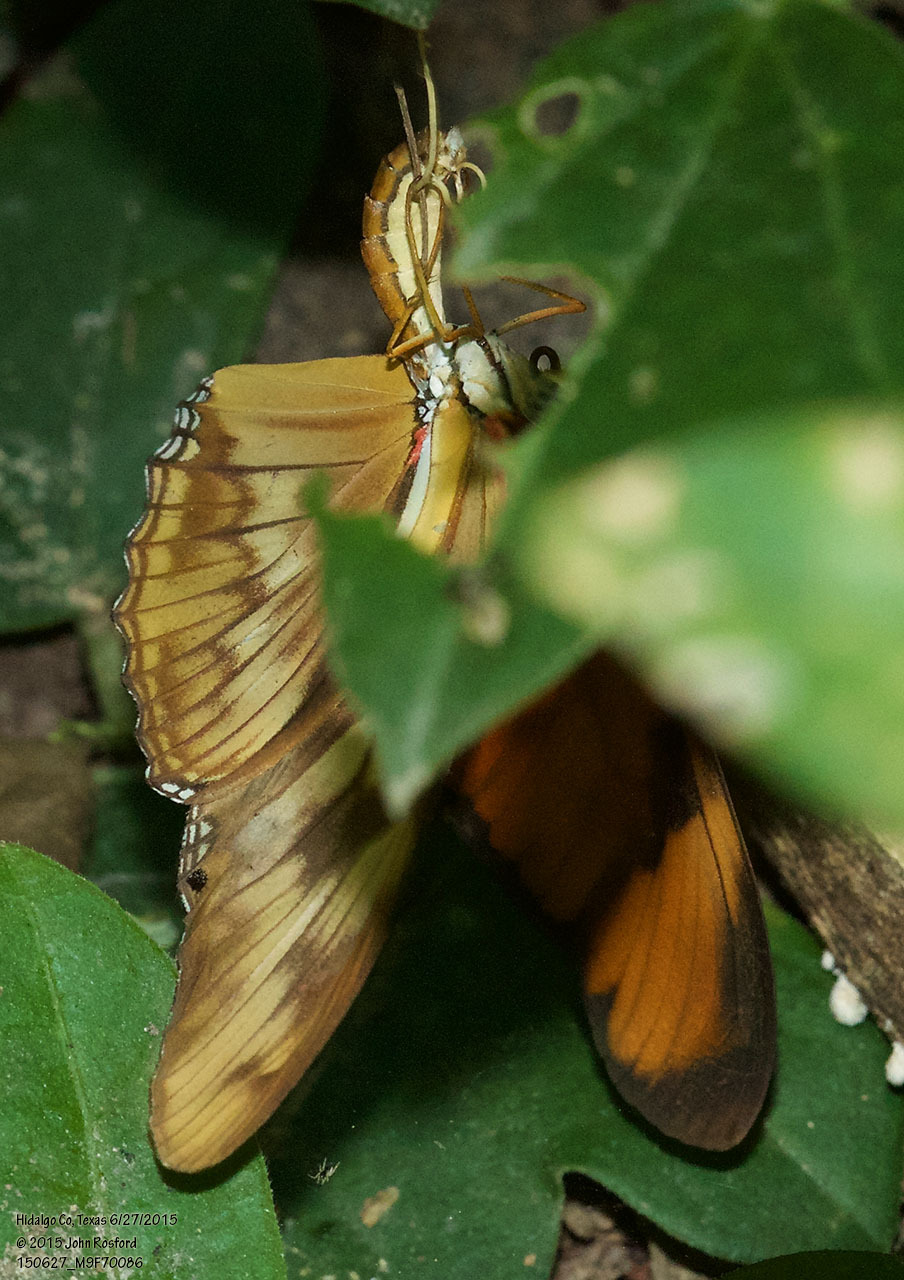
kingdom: Animalia
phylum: Arthropoda
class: Insecta
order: Lepidoptera
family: Nymphalidae
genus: Dryas
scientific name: Dryas iulia
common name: Flambeau
